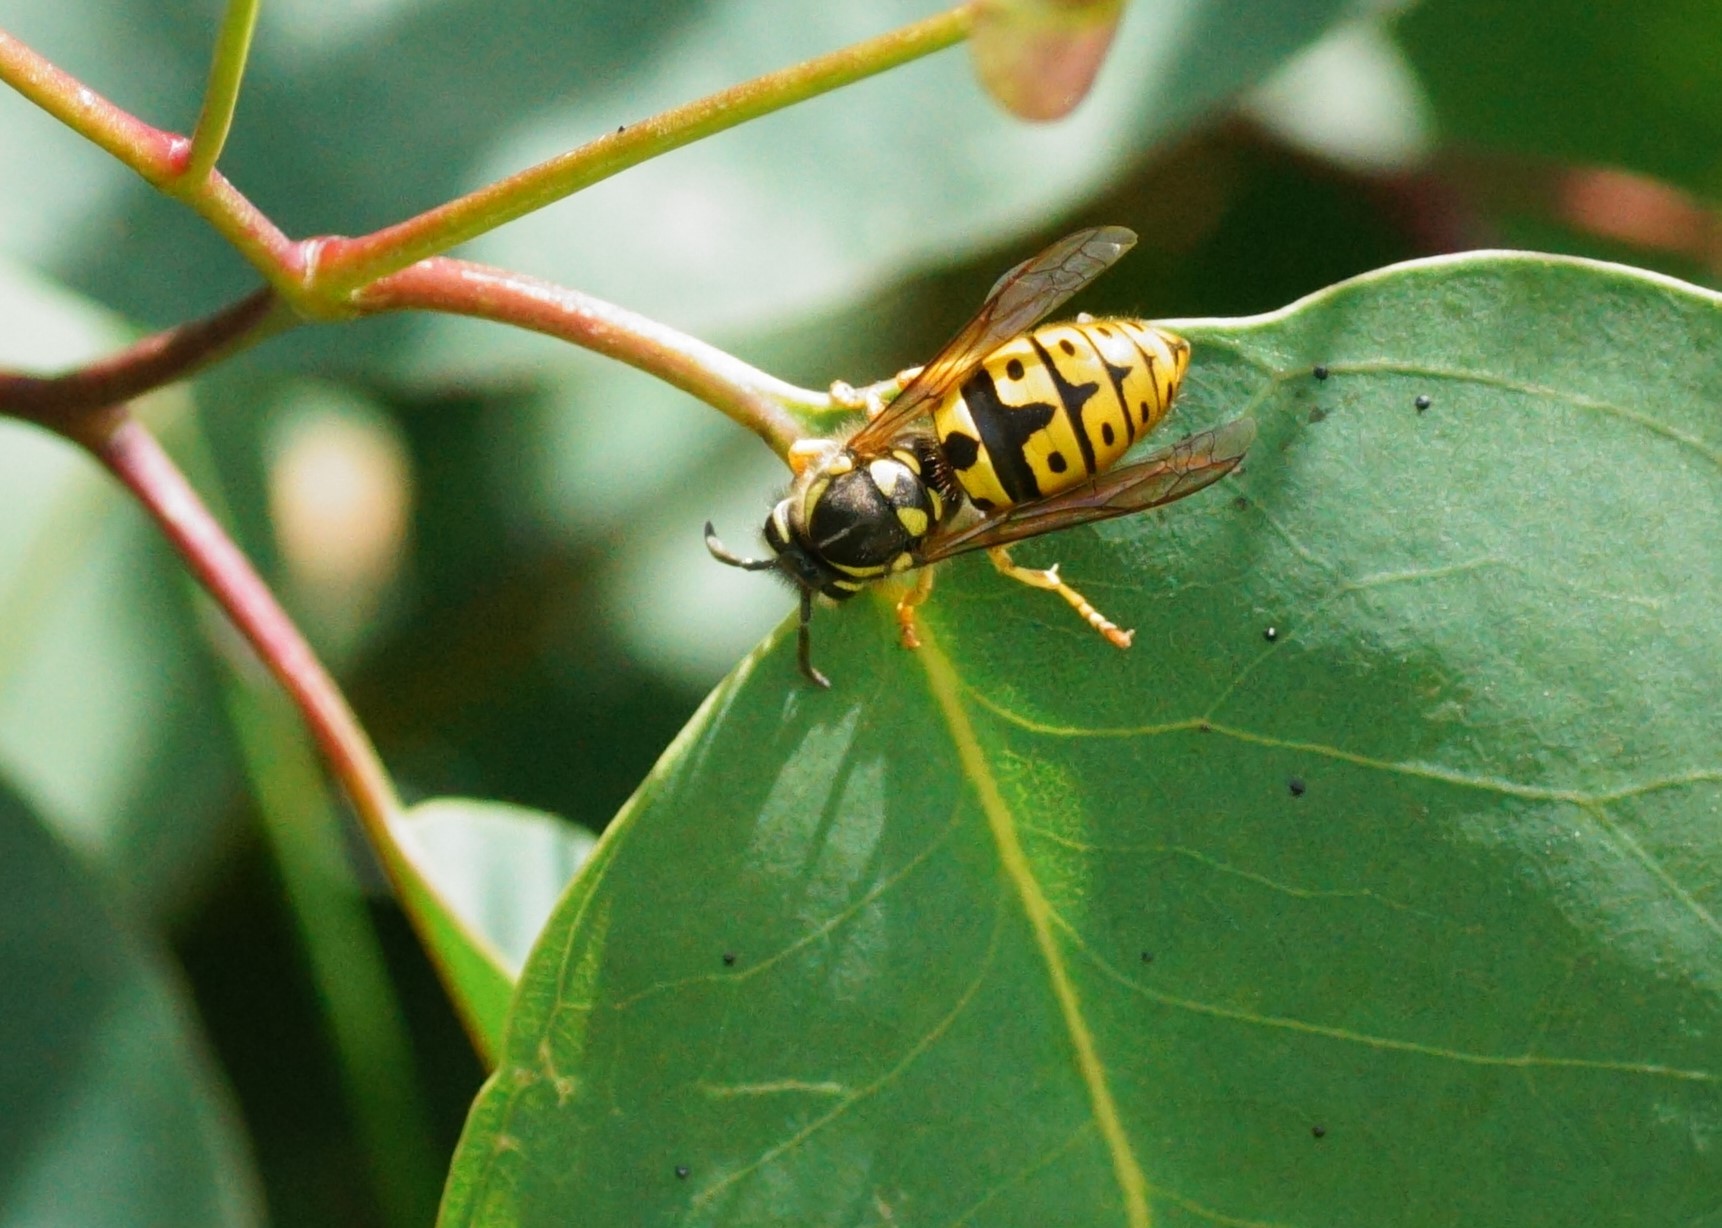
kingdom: Animalia
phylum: Arthropoda
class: Insecta
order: Hymenoptera
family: Vespidae
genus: Vespula
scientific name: Vespula germanica
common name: German wasp
